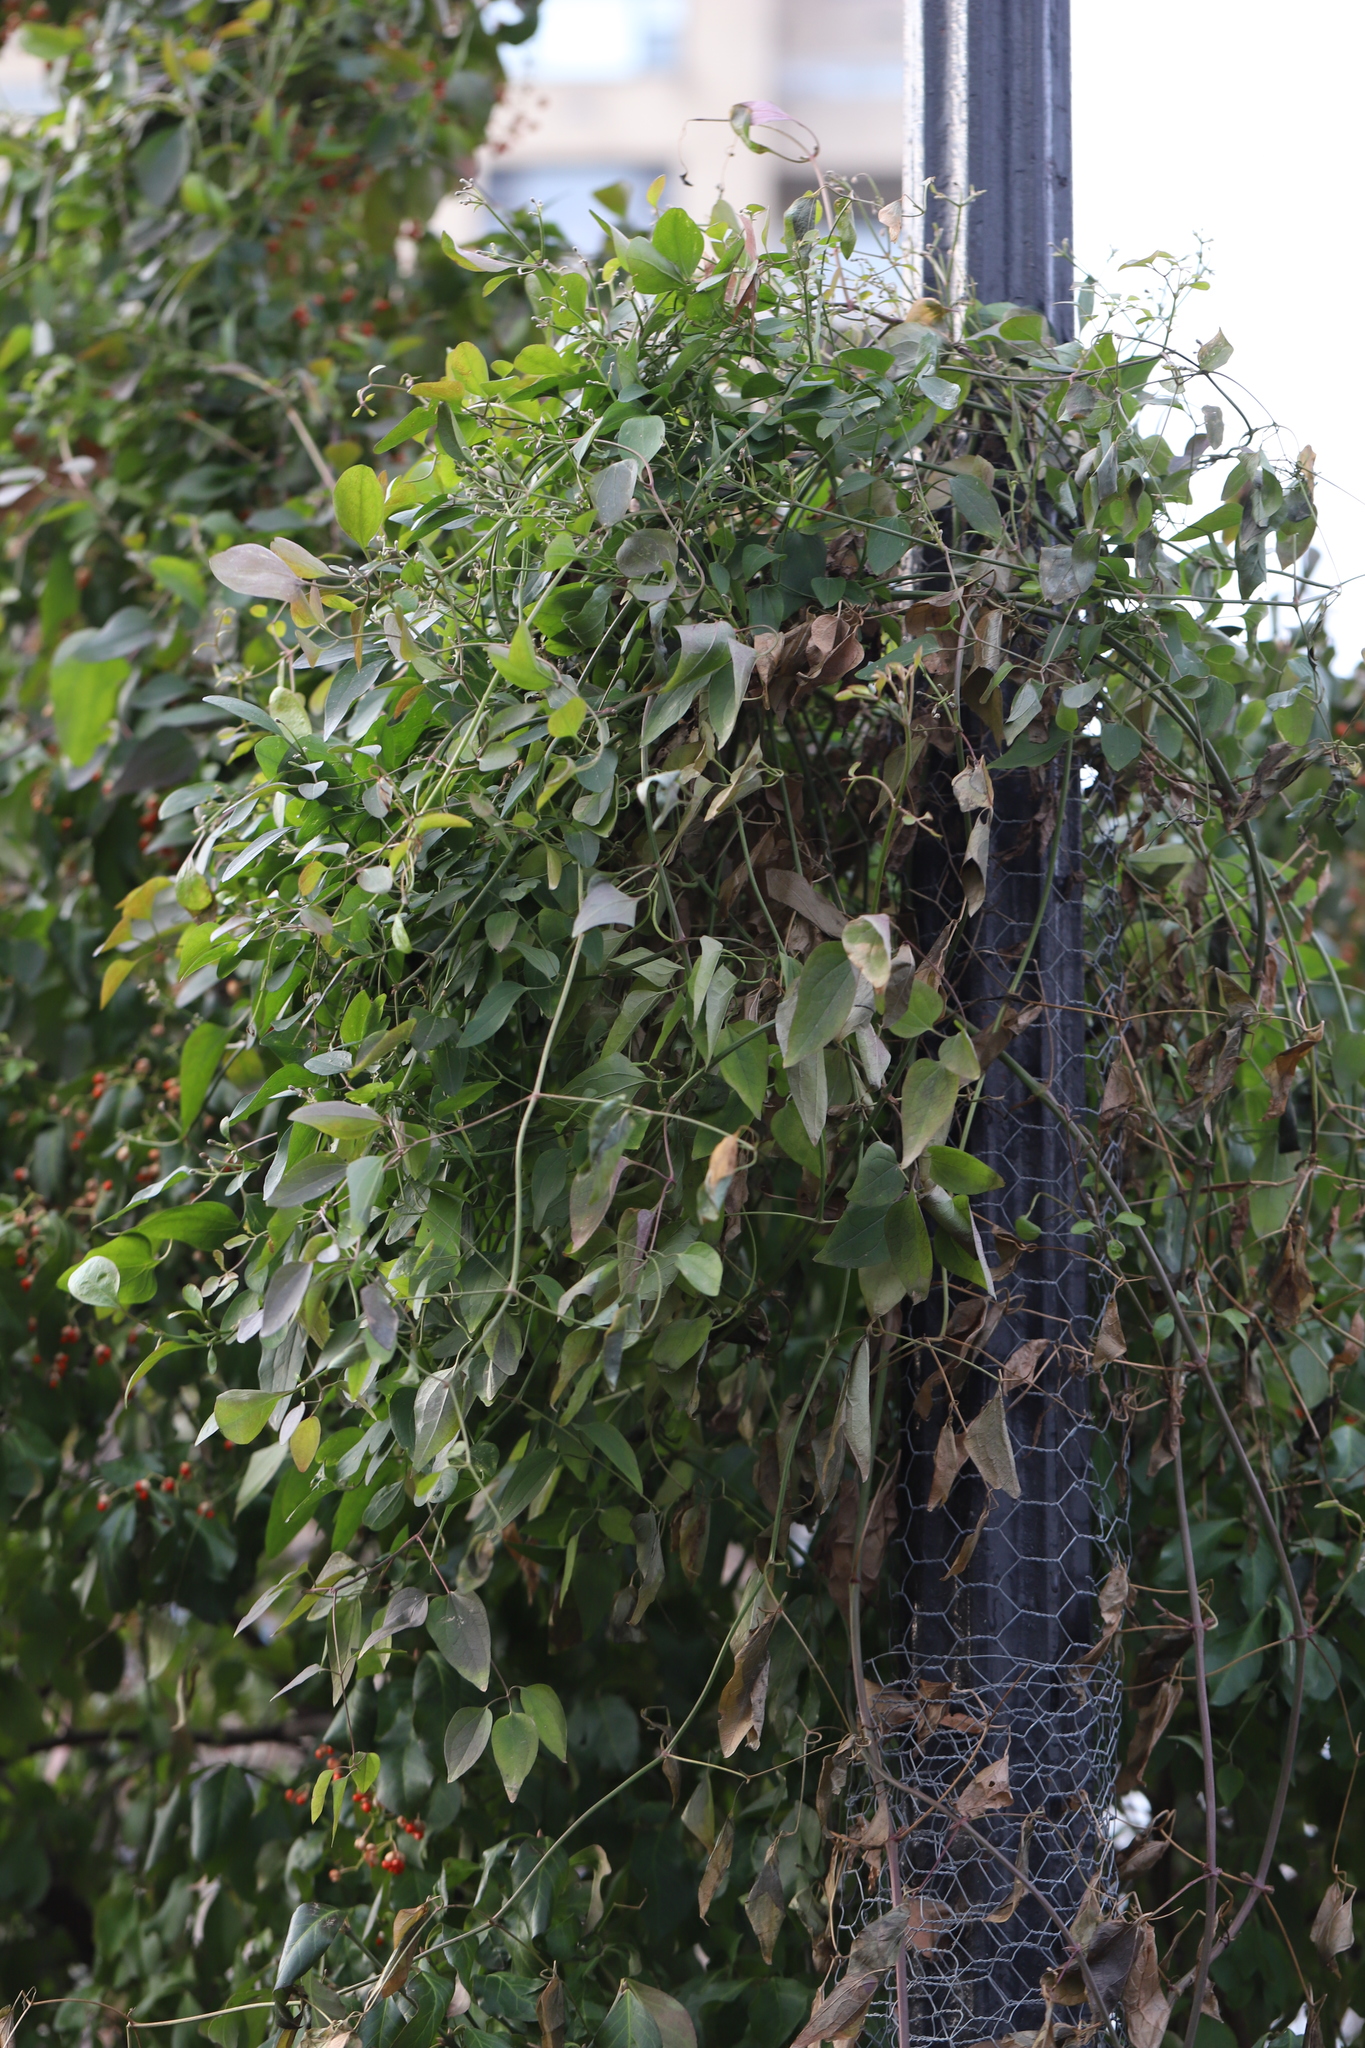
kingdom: Plantae
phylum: Tracheophyta
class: Magnoliopsida
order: Ranunculales
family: Ranunculaceae
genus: Clematis
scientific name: Clematis terniflora
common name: Sweet autumn clematis
